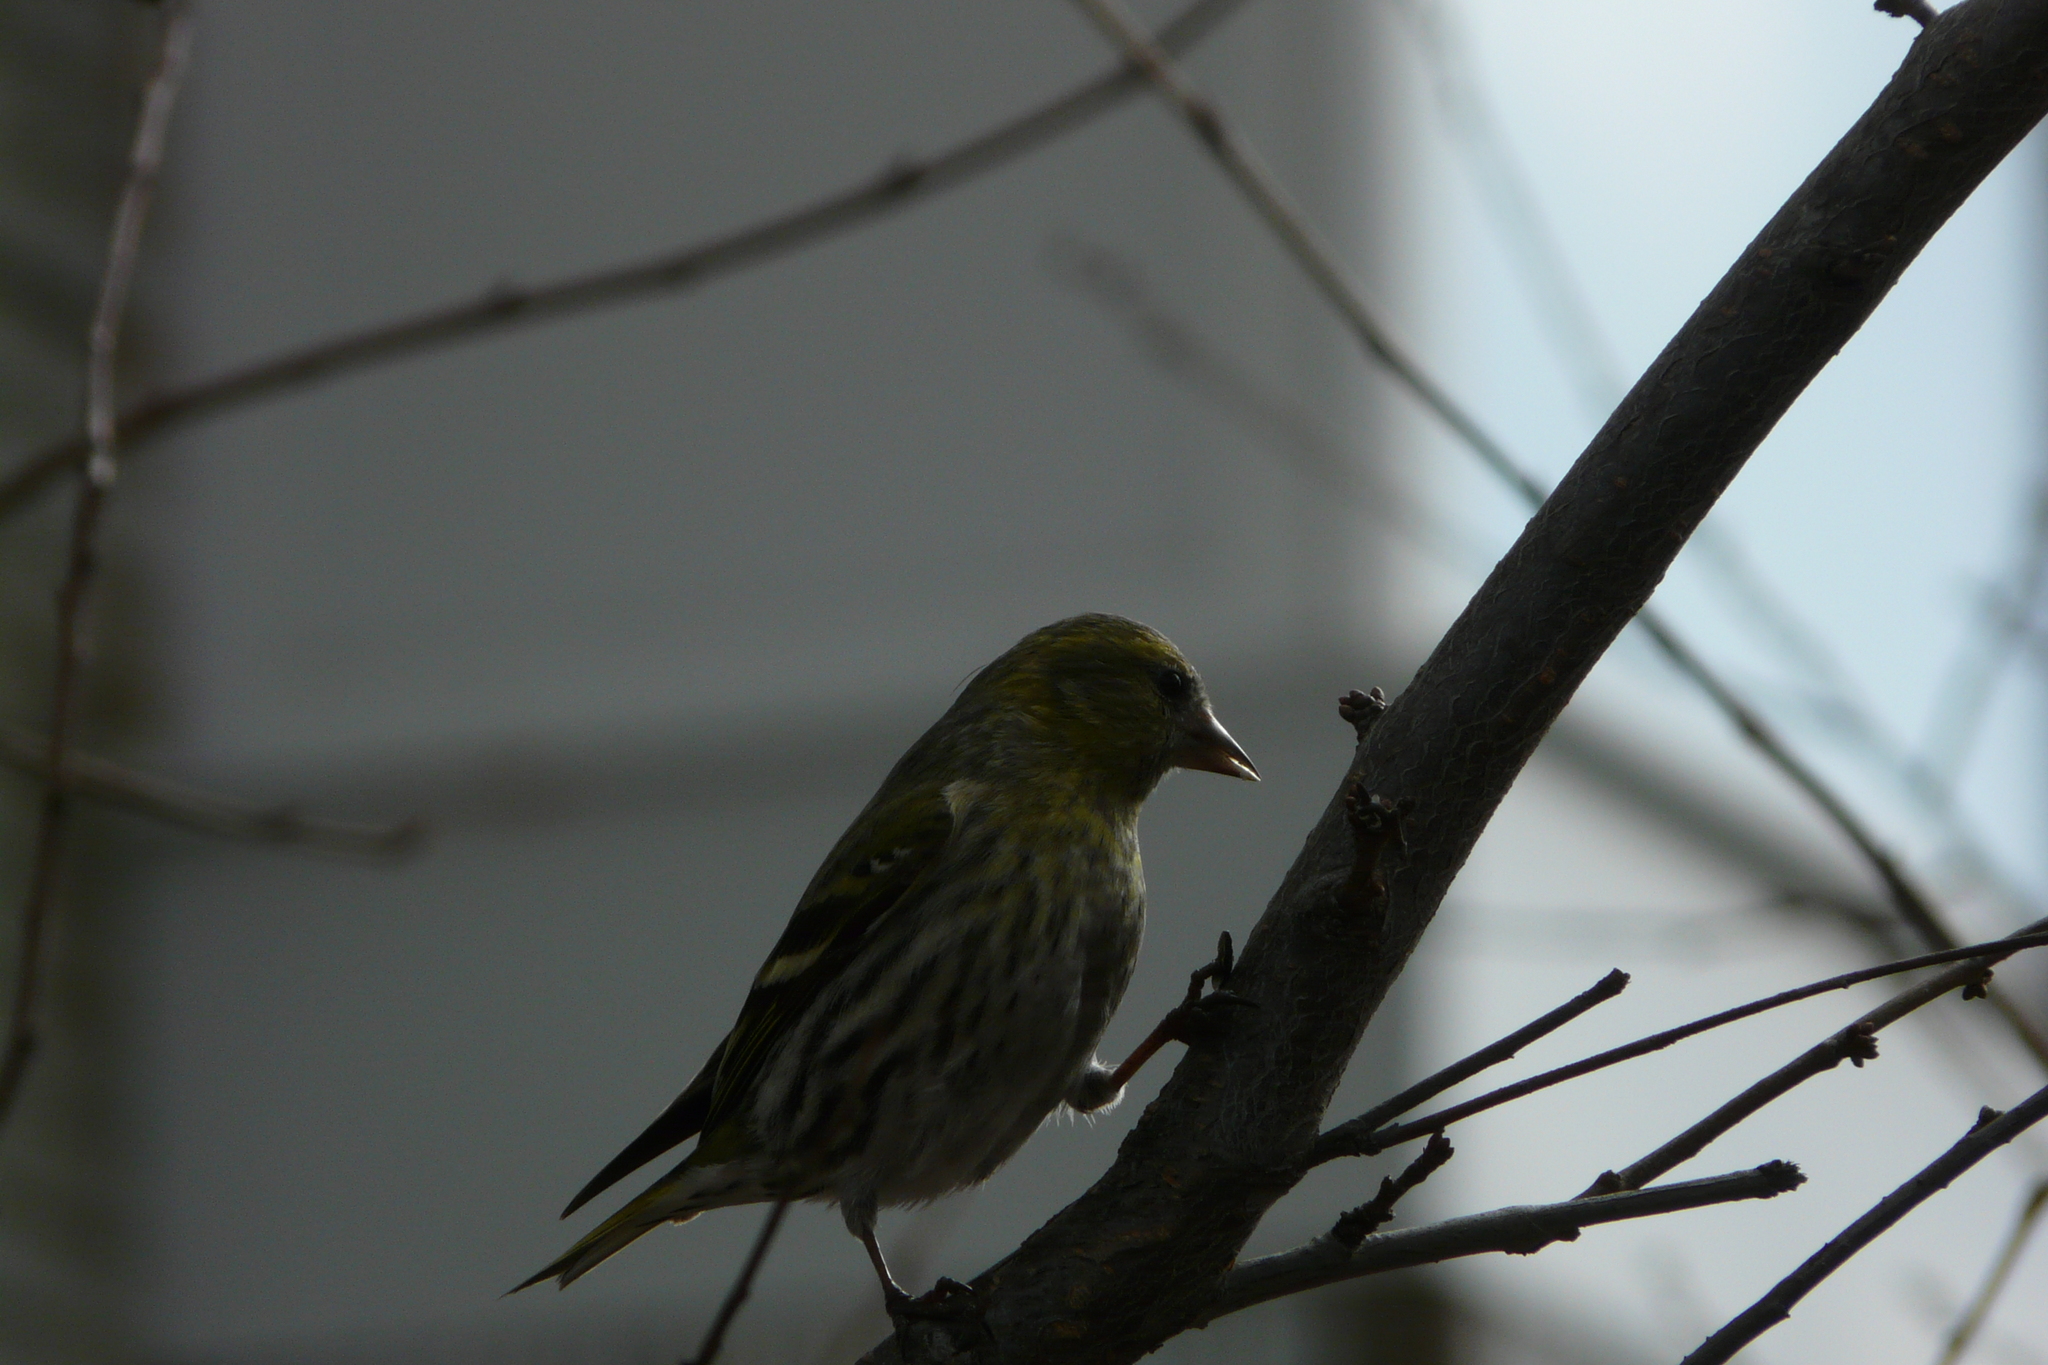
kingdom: Animalia
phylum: Chordata
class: Aves
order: Passeriformes
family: Fringillidae
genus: Spinus
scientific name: Spinus spinus
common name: Eurasian siskin
